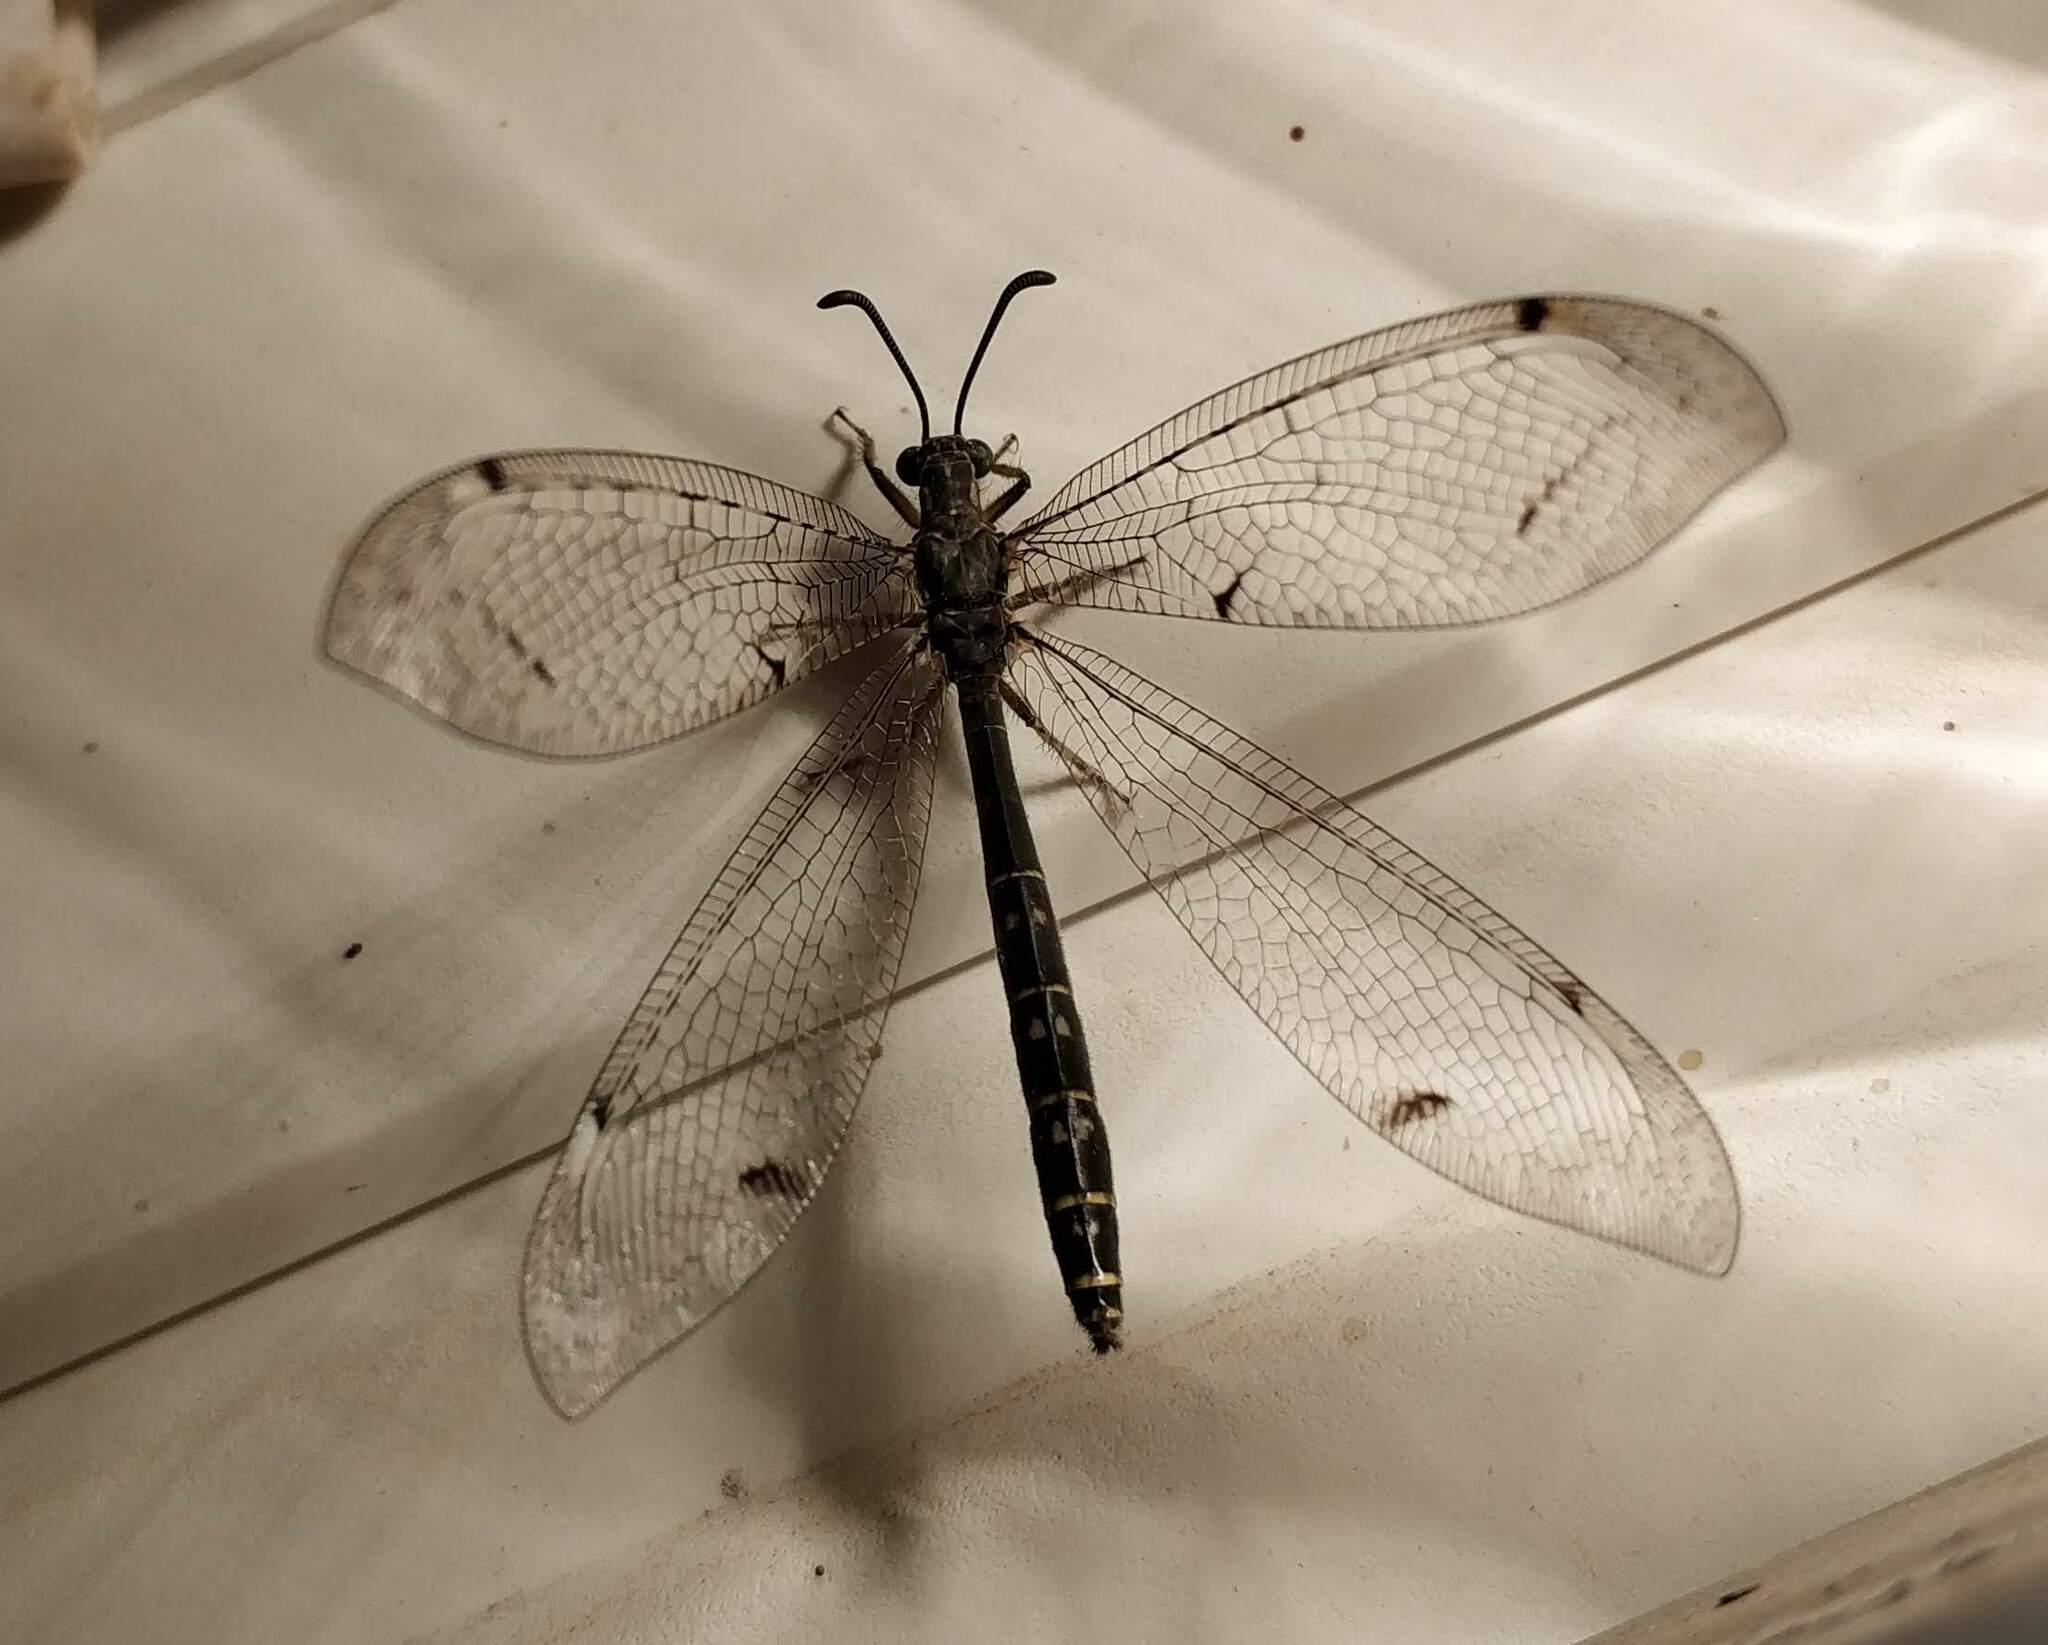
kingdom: Animalia
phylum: Arthropoda
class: Insecta
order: Neuroptera
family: Myrmeleontidae
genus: Distoleon
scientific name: Distoleon tetragrammicus
